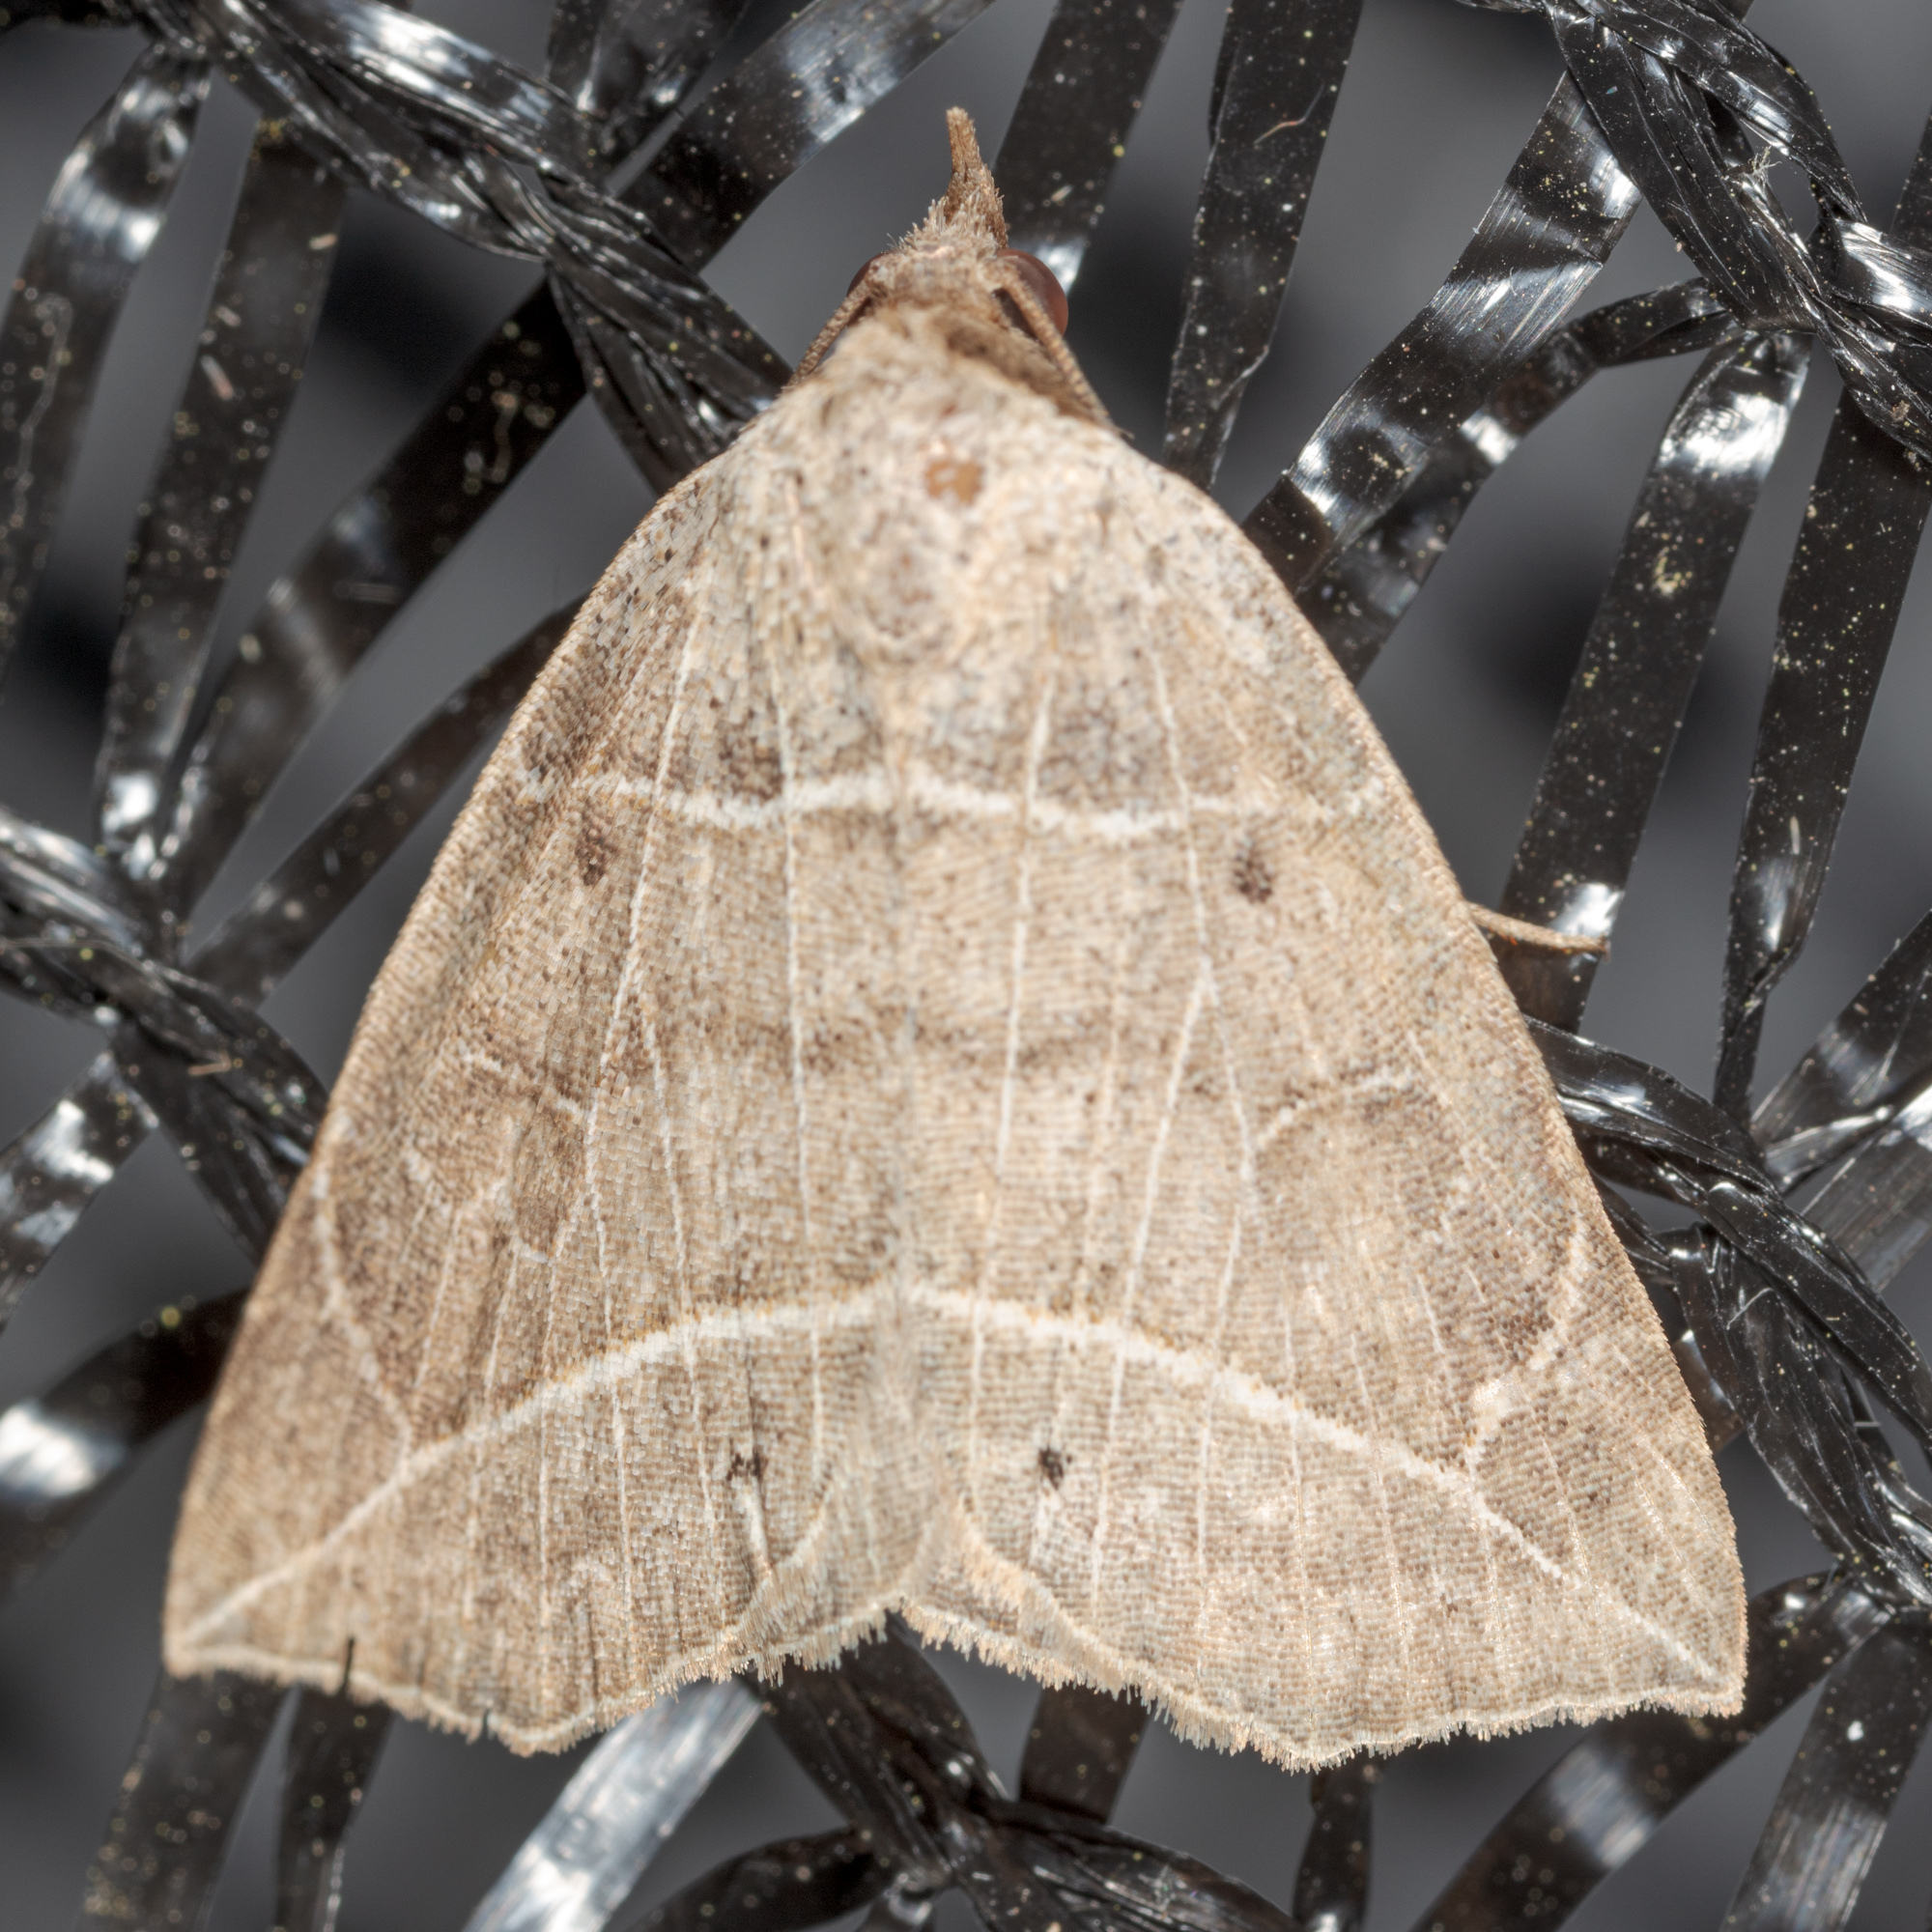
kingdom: Animalia
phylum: Arthropoda
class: Insecta
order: Lepidoptera
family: Erebidae
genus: Isogona
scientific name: Isogona tenuis
